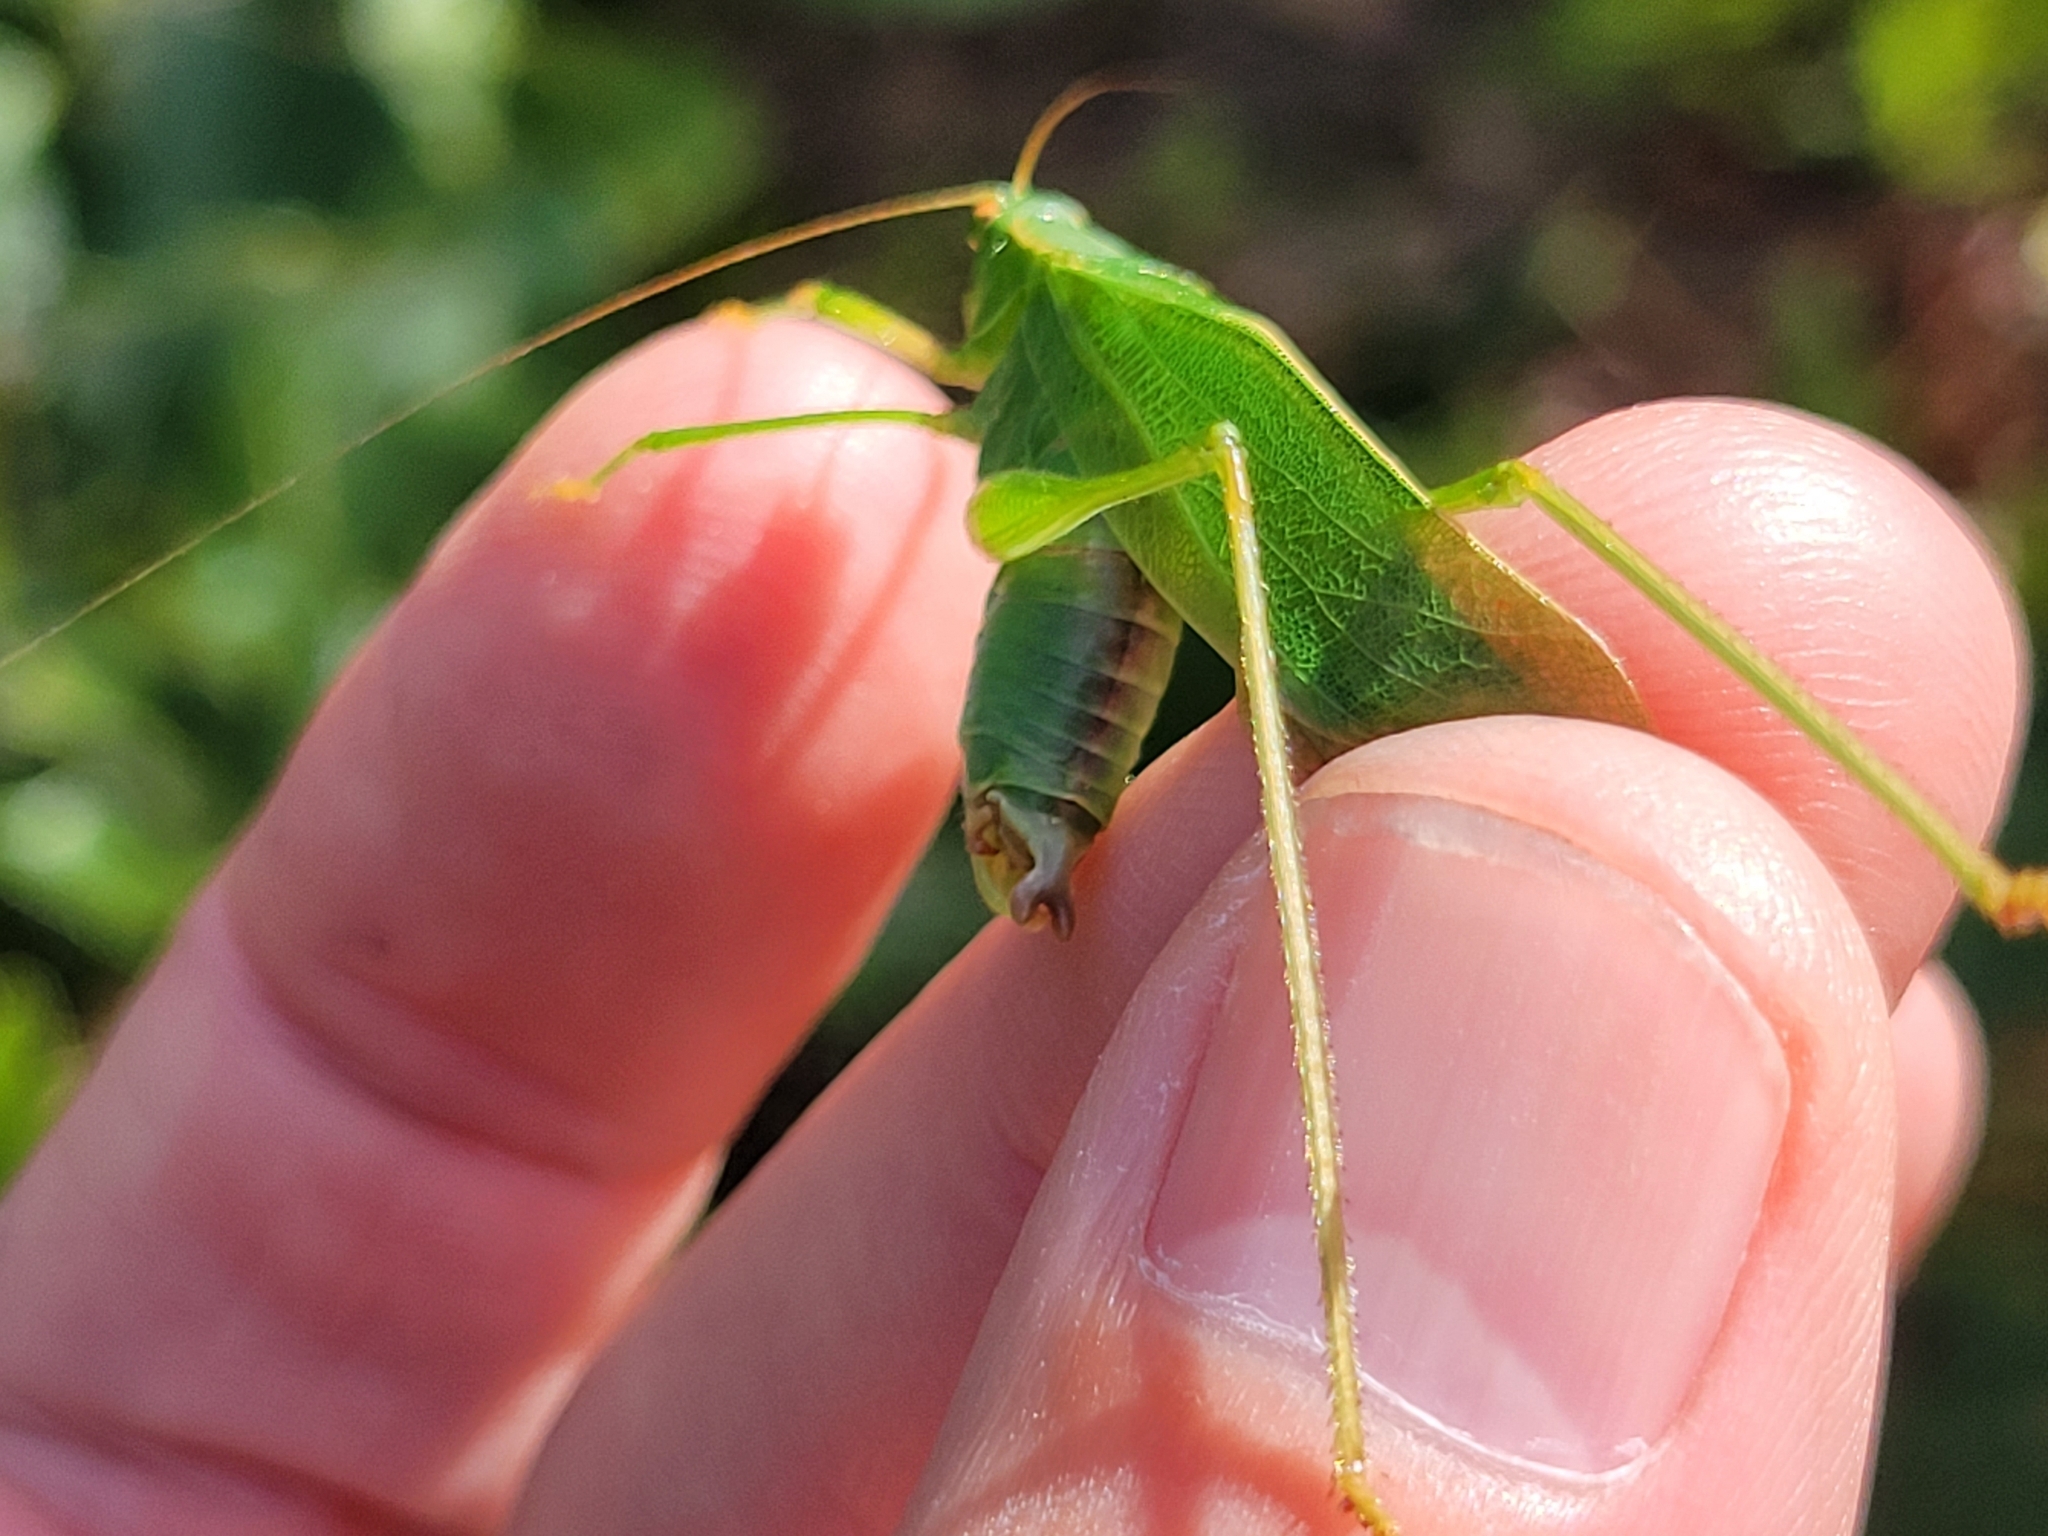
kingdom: Animalia
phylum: Arthropoda
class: Insecta
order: Orthoptera
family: Tettigoniidae
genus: Scudderia
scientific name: Scudderia furcata
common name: Fork-tailed bush katydid
